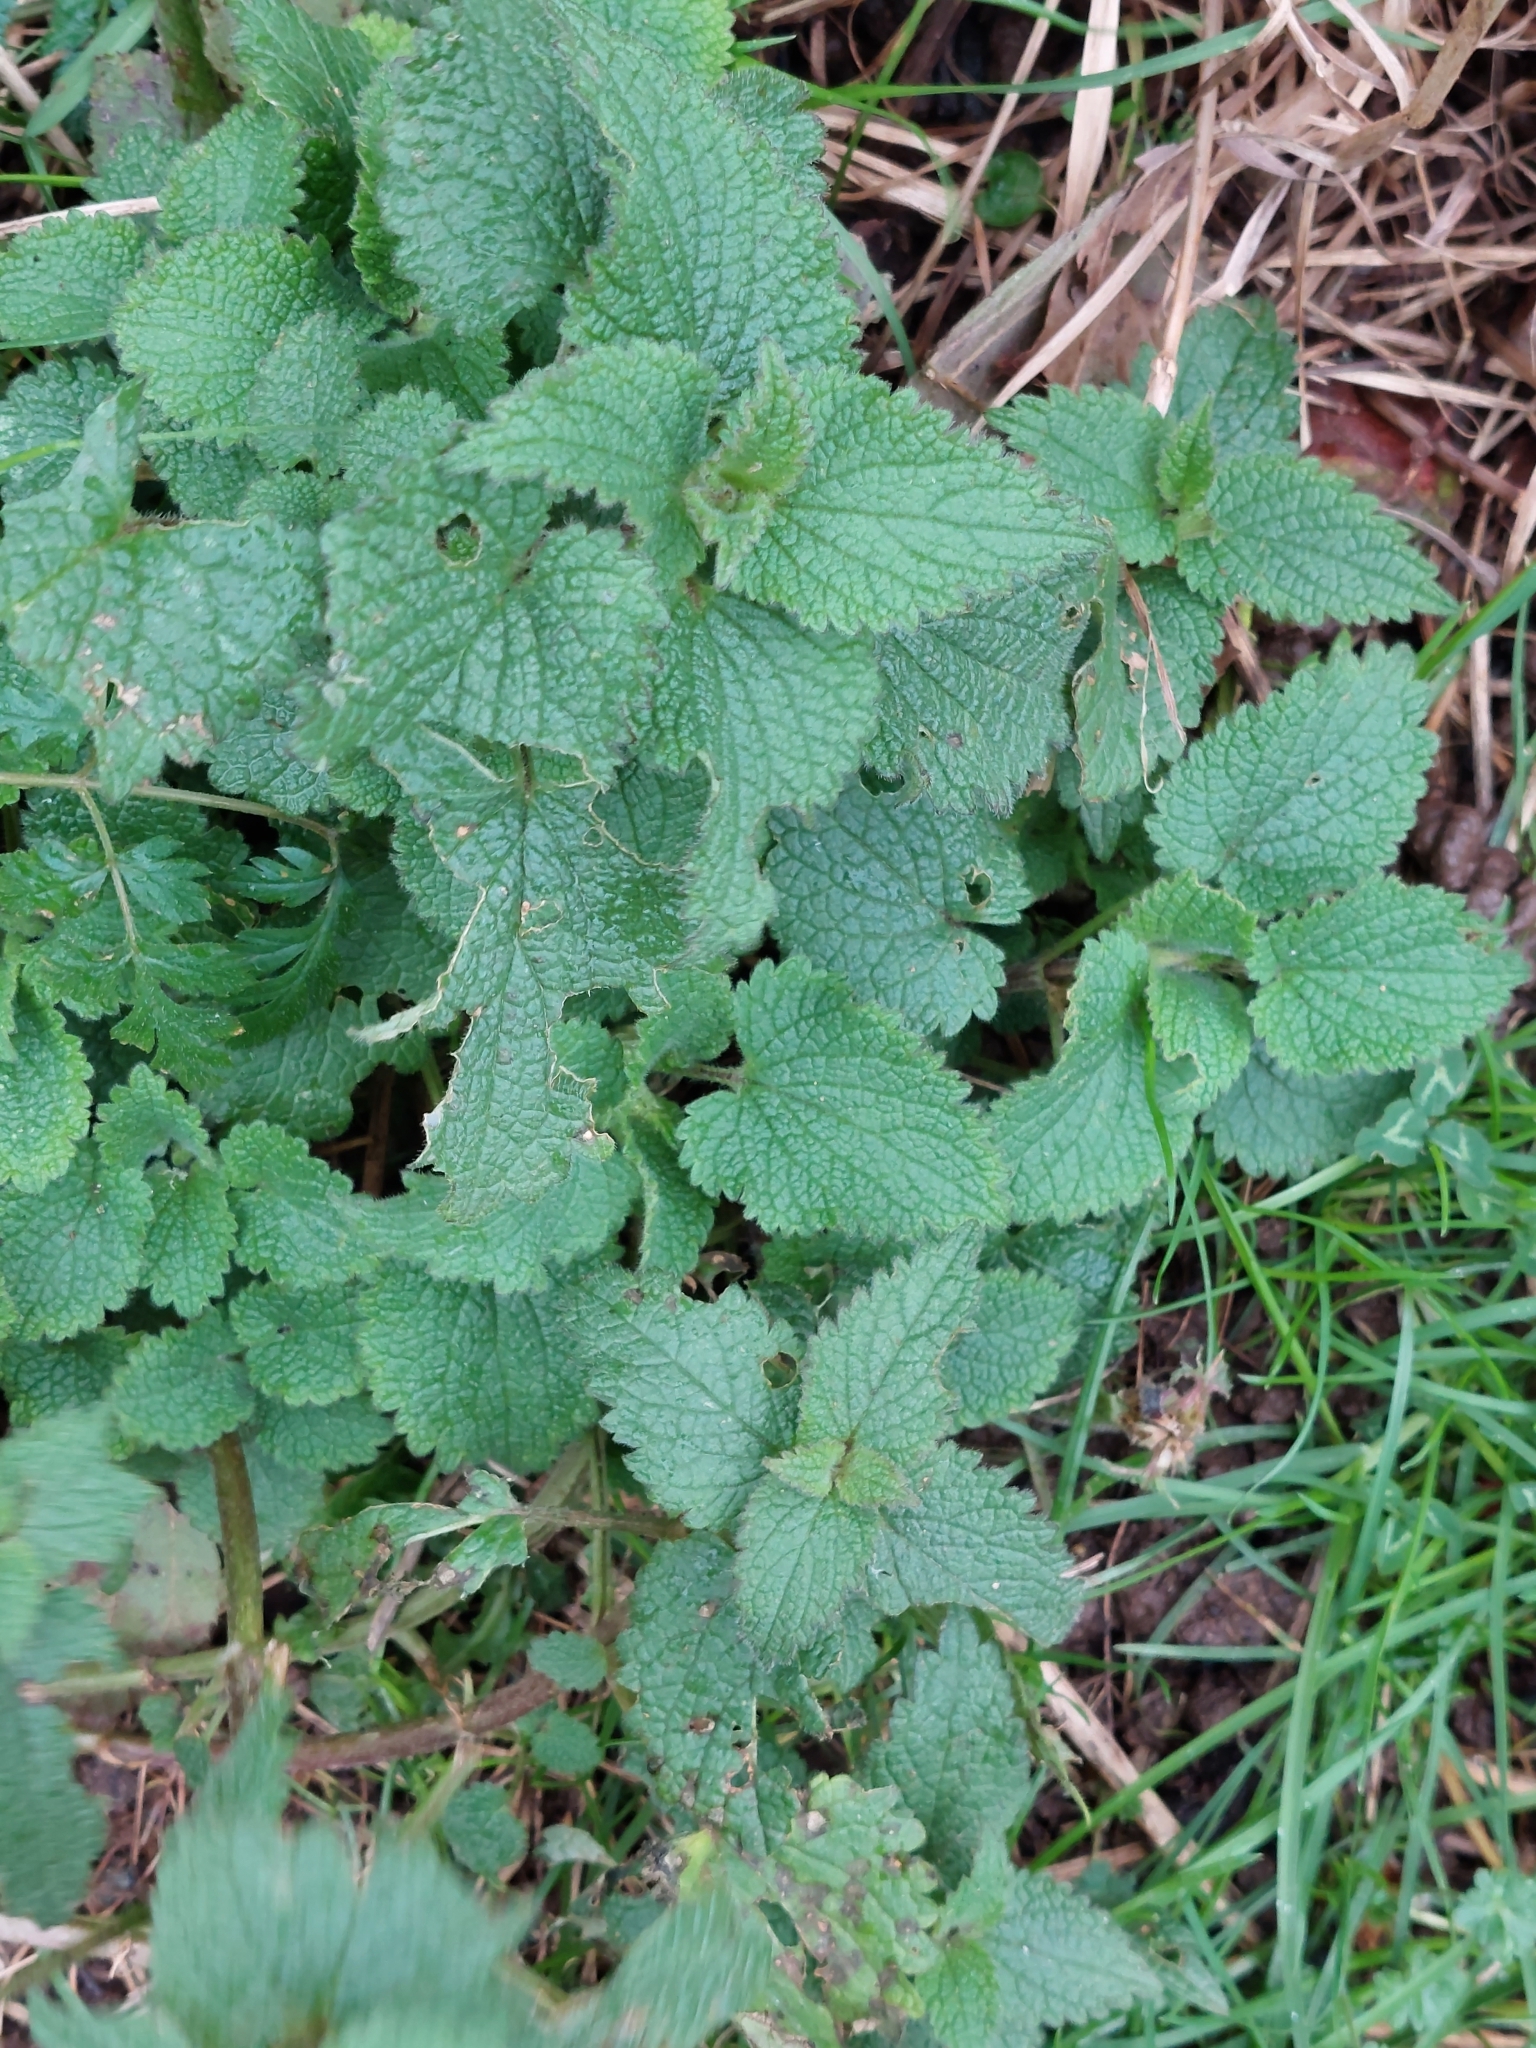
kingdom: Plantae
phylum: Tracheophyta
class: Magnoliopsida
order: Lamiales
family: Lamiaceae
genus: Lamium
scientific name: Lamium album
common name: White dead-nettle
